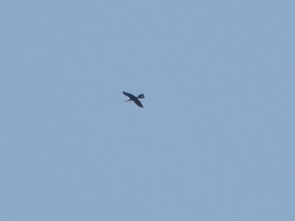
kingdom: Animalia
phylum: Chordata
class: Aves
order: Suliformes
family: Anhingidae
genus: Anhinga
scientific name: Anhinga anhinga
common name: Anhinga
